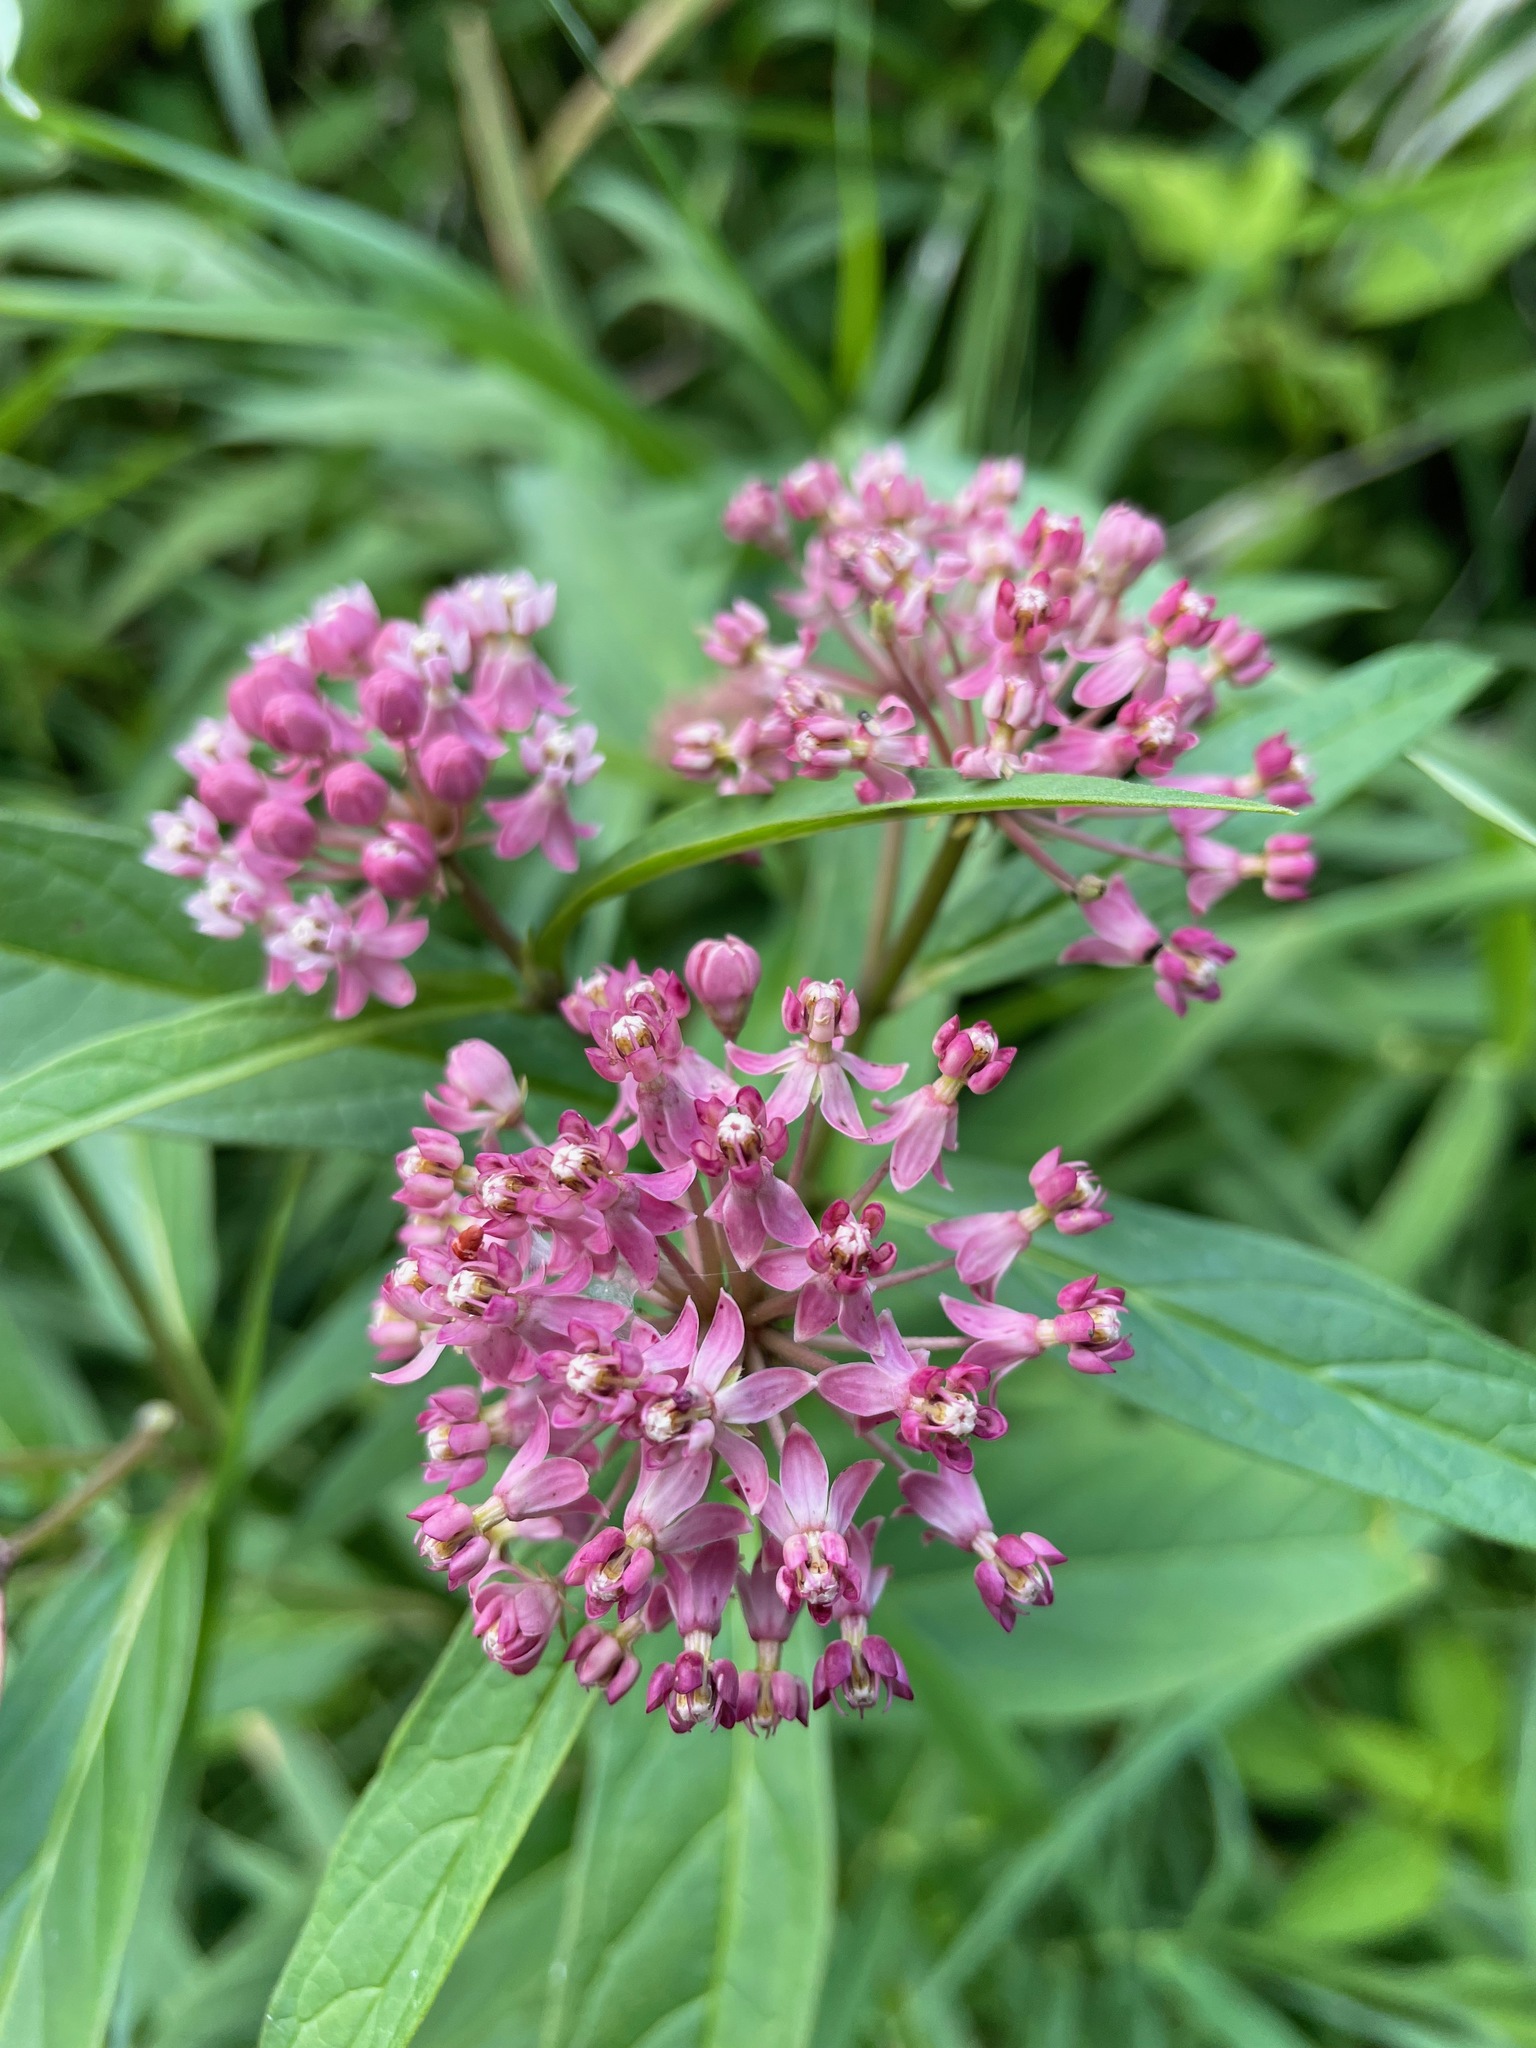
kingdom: Plantae
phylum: Tracheophyta
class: Magnoliopsida
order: Gentianales
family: Apocynaceae
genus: Asclepias
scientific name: Asclepias incarnata
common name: Swamp milkweed
